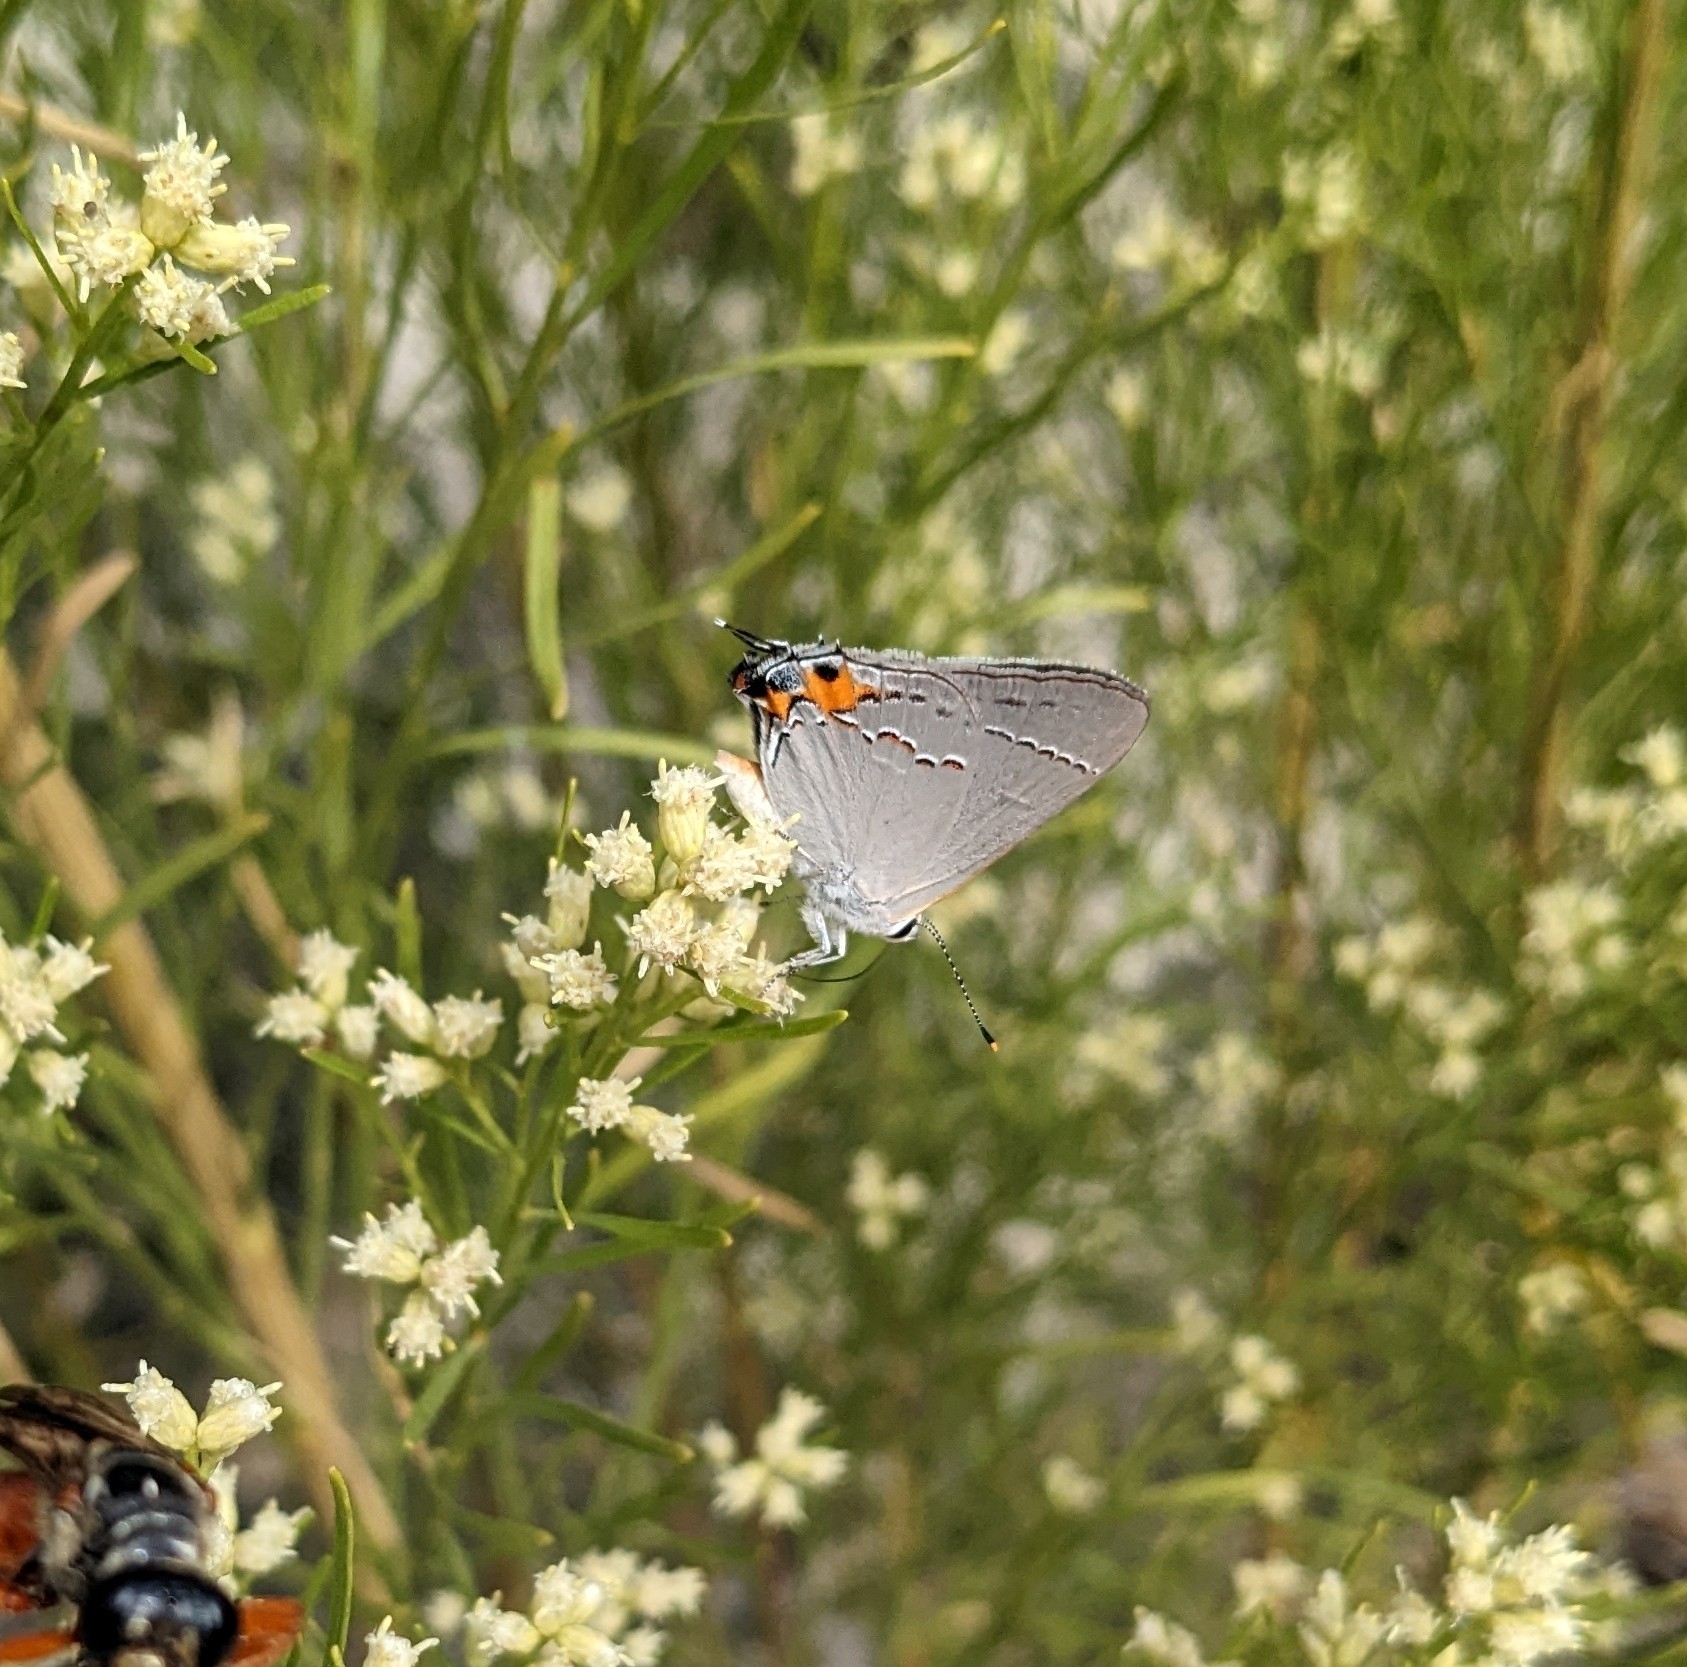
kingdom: Animalia
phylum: Arthropoda
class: Insecta
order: Lepidoptera
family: Lycaenidae
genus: Strymon
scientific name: Strymon melinus
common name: Gray hairstreak
